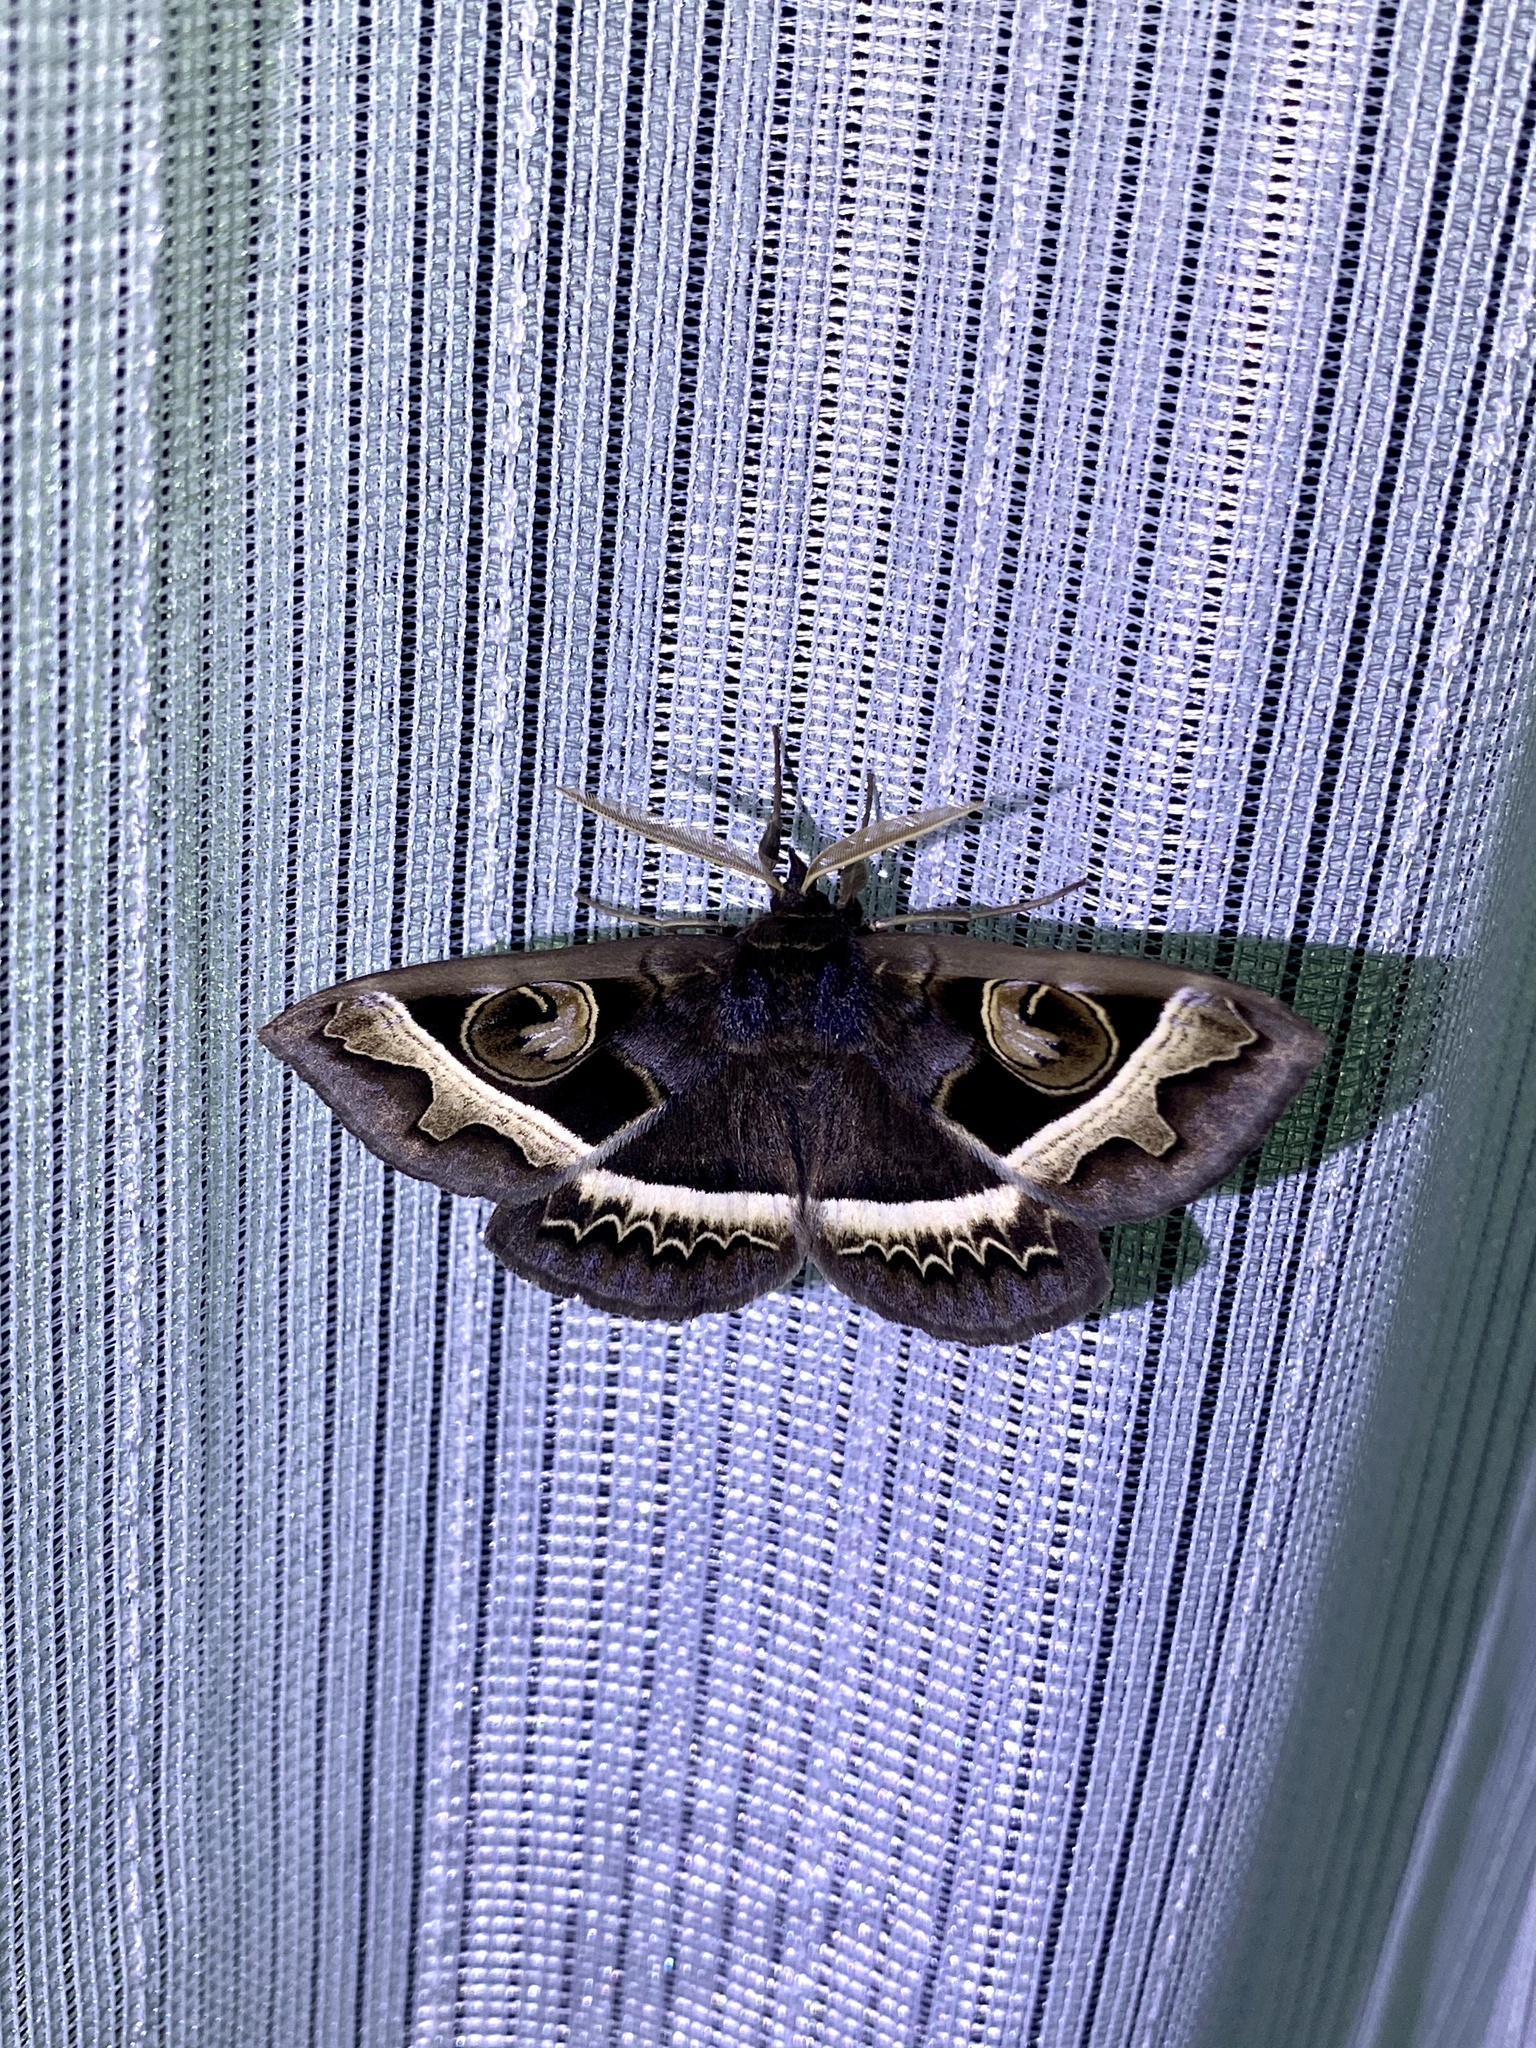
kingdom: Animalia
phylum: Arthropoda
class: Insecta
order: Lepidoptera
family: Erebidae
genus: Metopta
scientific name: Metopta rectifasciata
